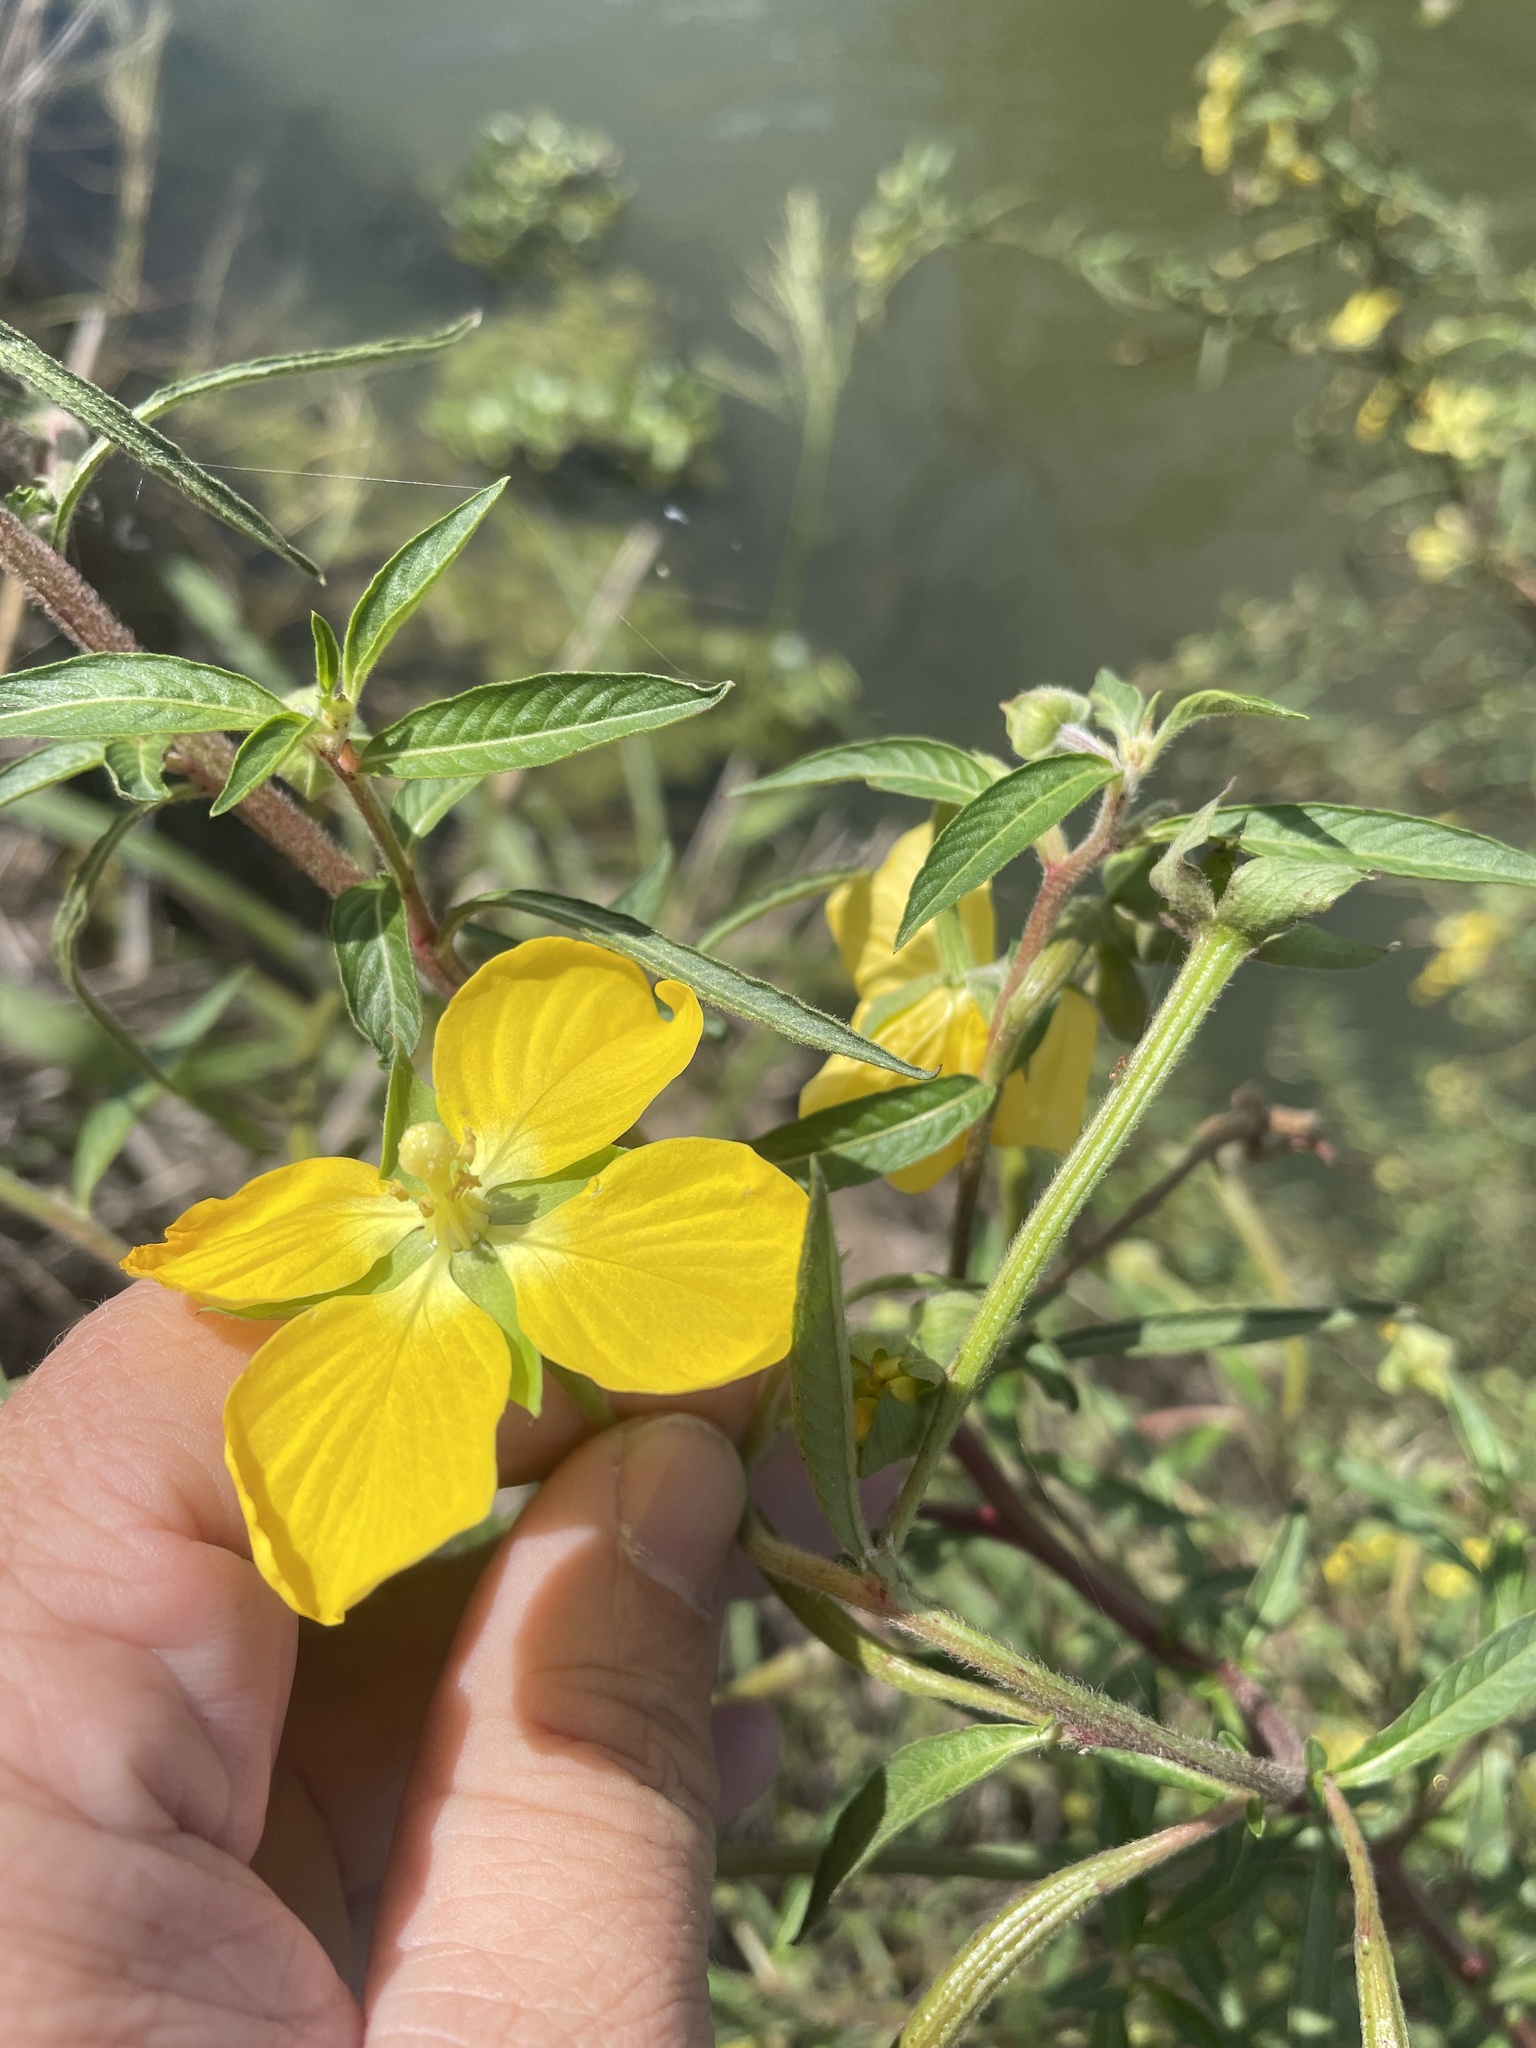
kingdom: Plantae
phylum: Tracheophyta
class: Magnoliopsida
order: Myrtales
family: Onagraceae
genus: Ludwigia
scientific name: Ludwigia octovalvis
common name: Water-primrose
